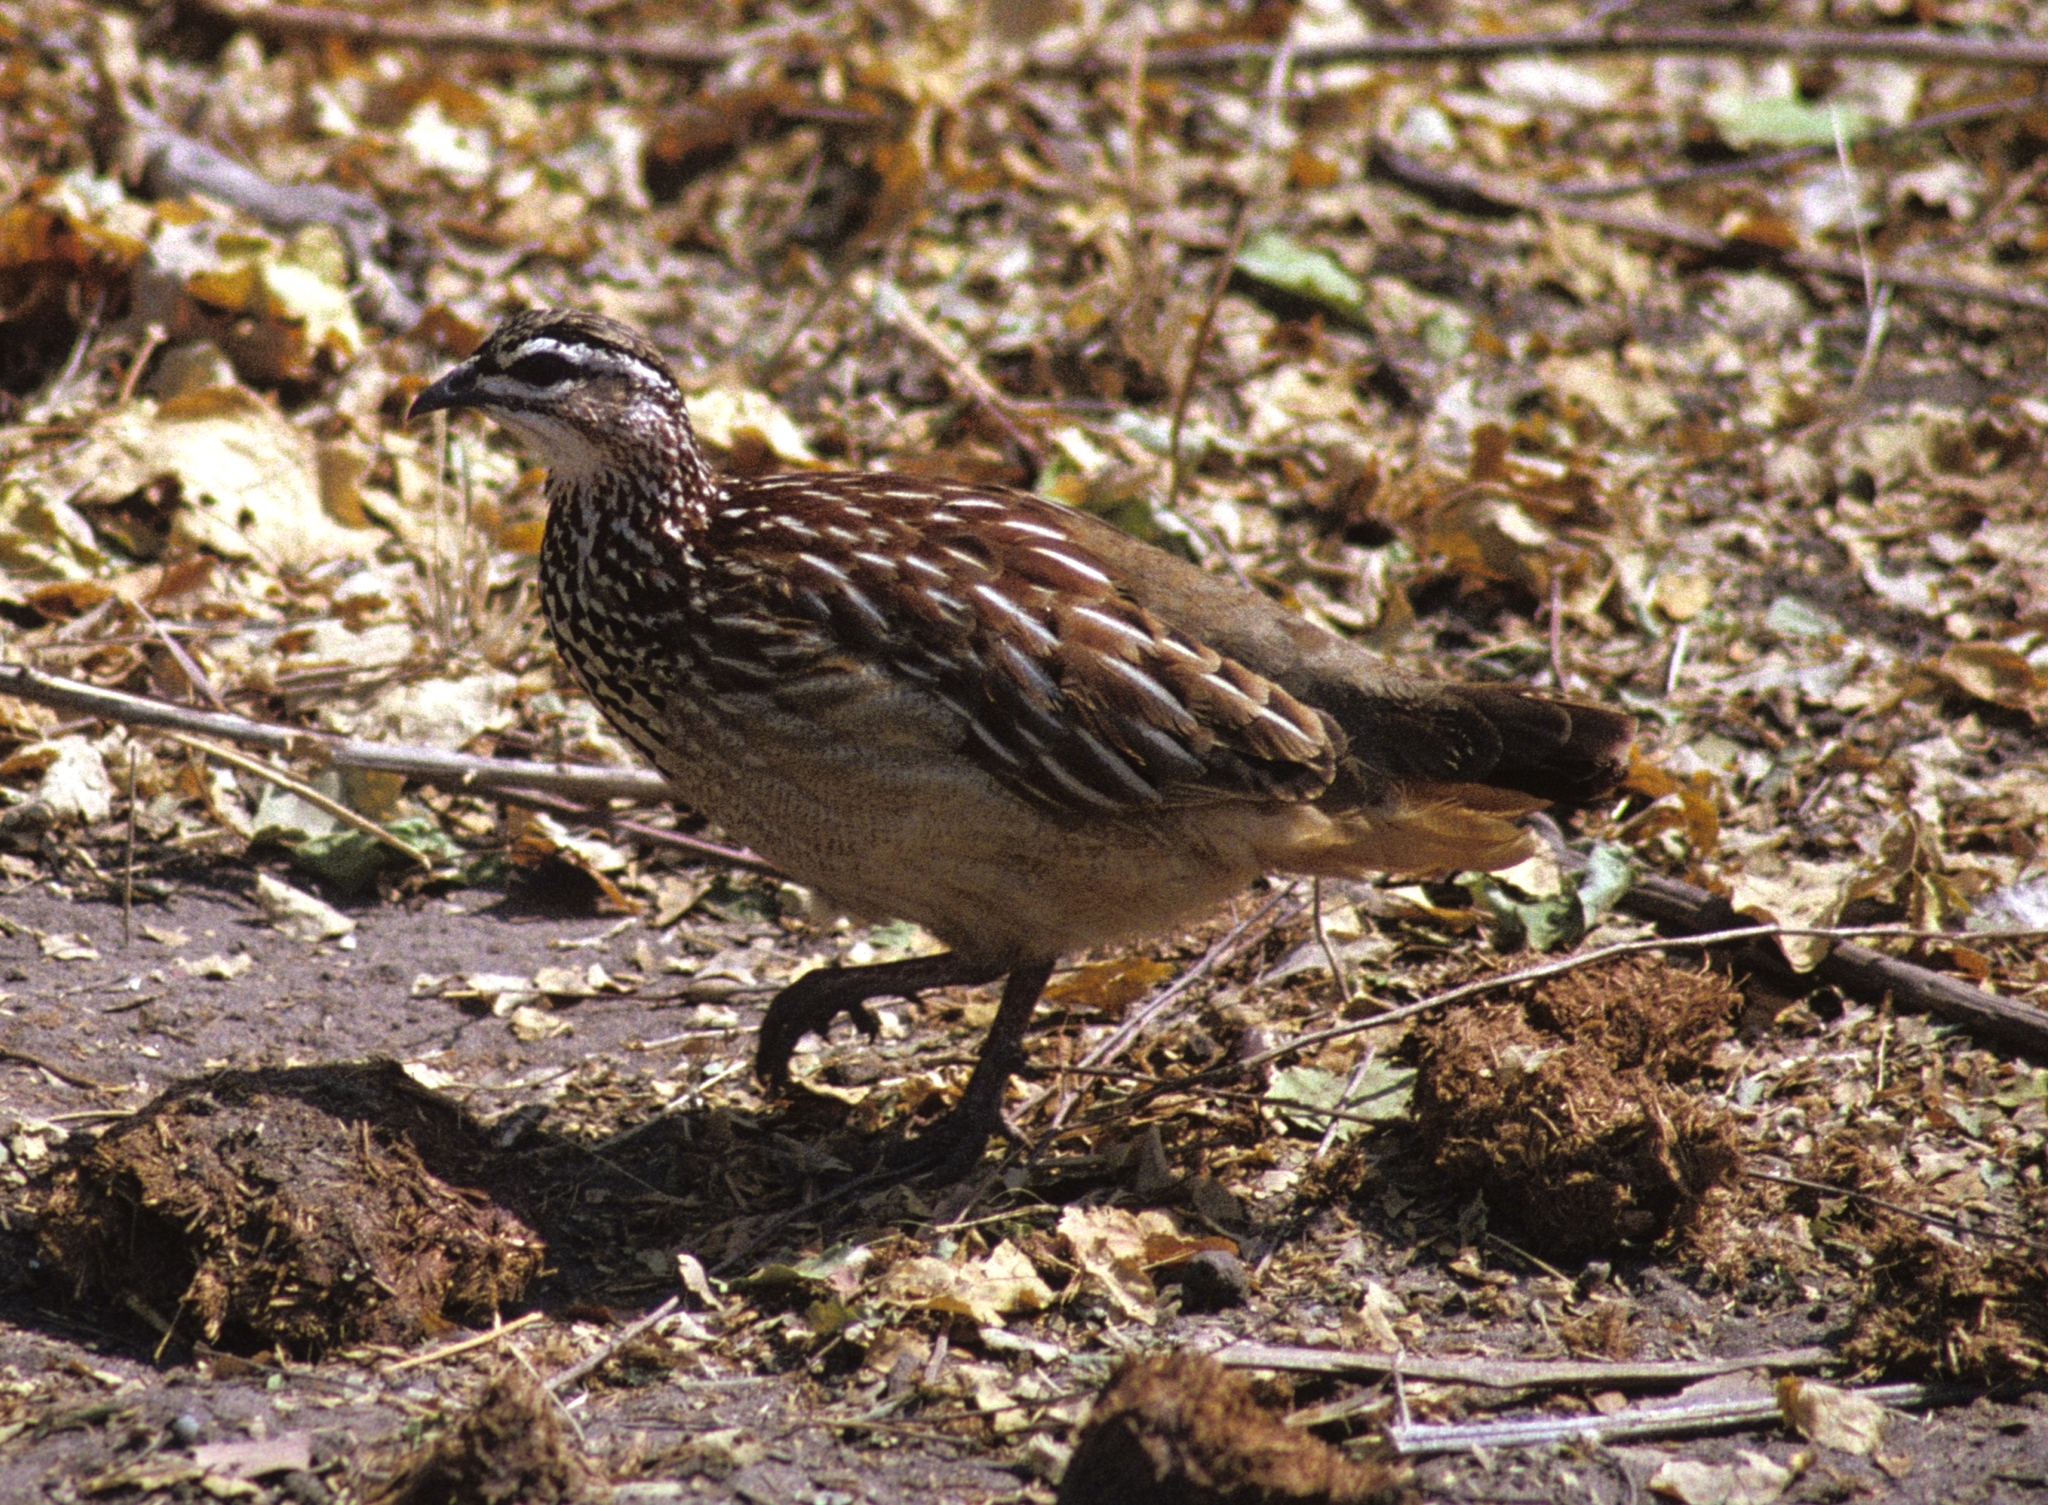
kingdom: Animalia
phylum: Chordata
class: Aves
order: Galliformes
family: Phasianidae
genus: Ortygornis
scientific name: Ortygornis sephaena
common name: Crested francolin
